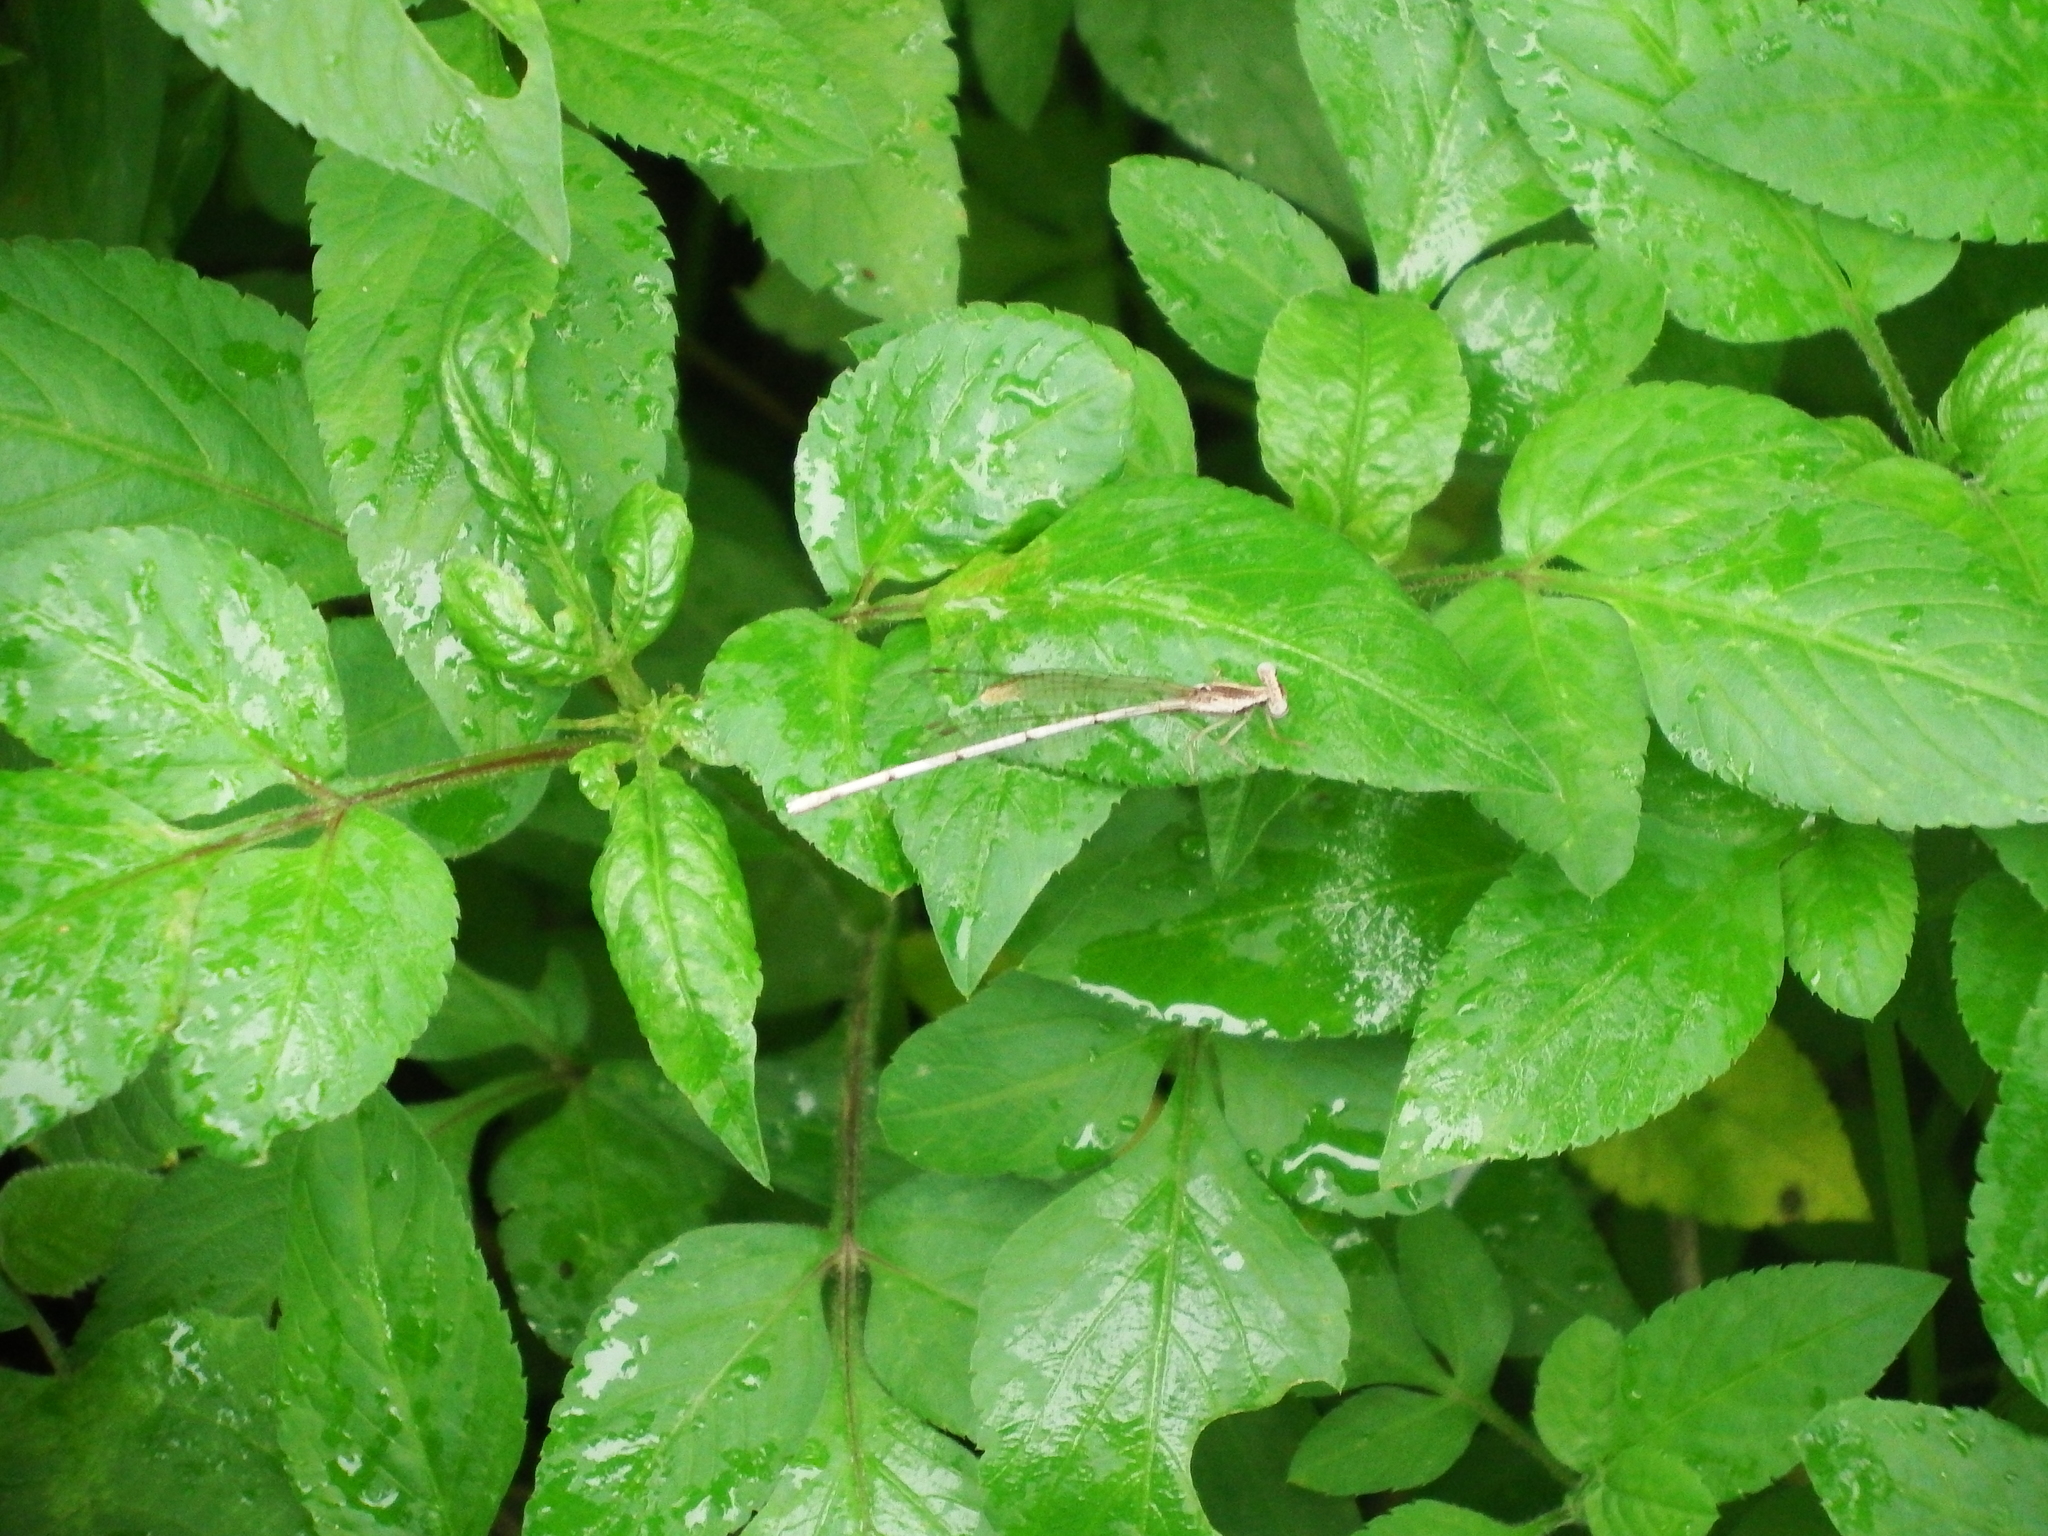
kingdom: Animalia
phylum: Arthropoda
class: Insecta
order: Odonata
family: Platycnemididae
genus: Copera
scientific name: Copera marginipes
